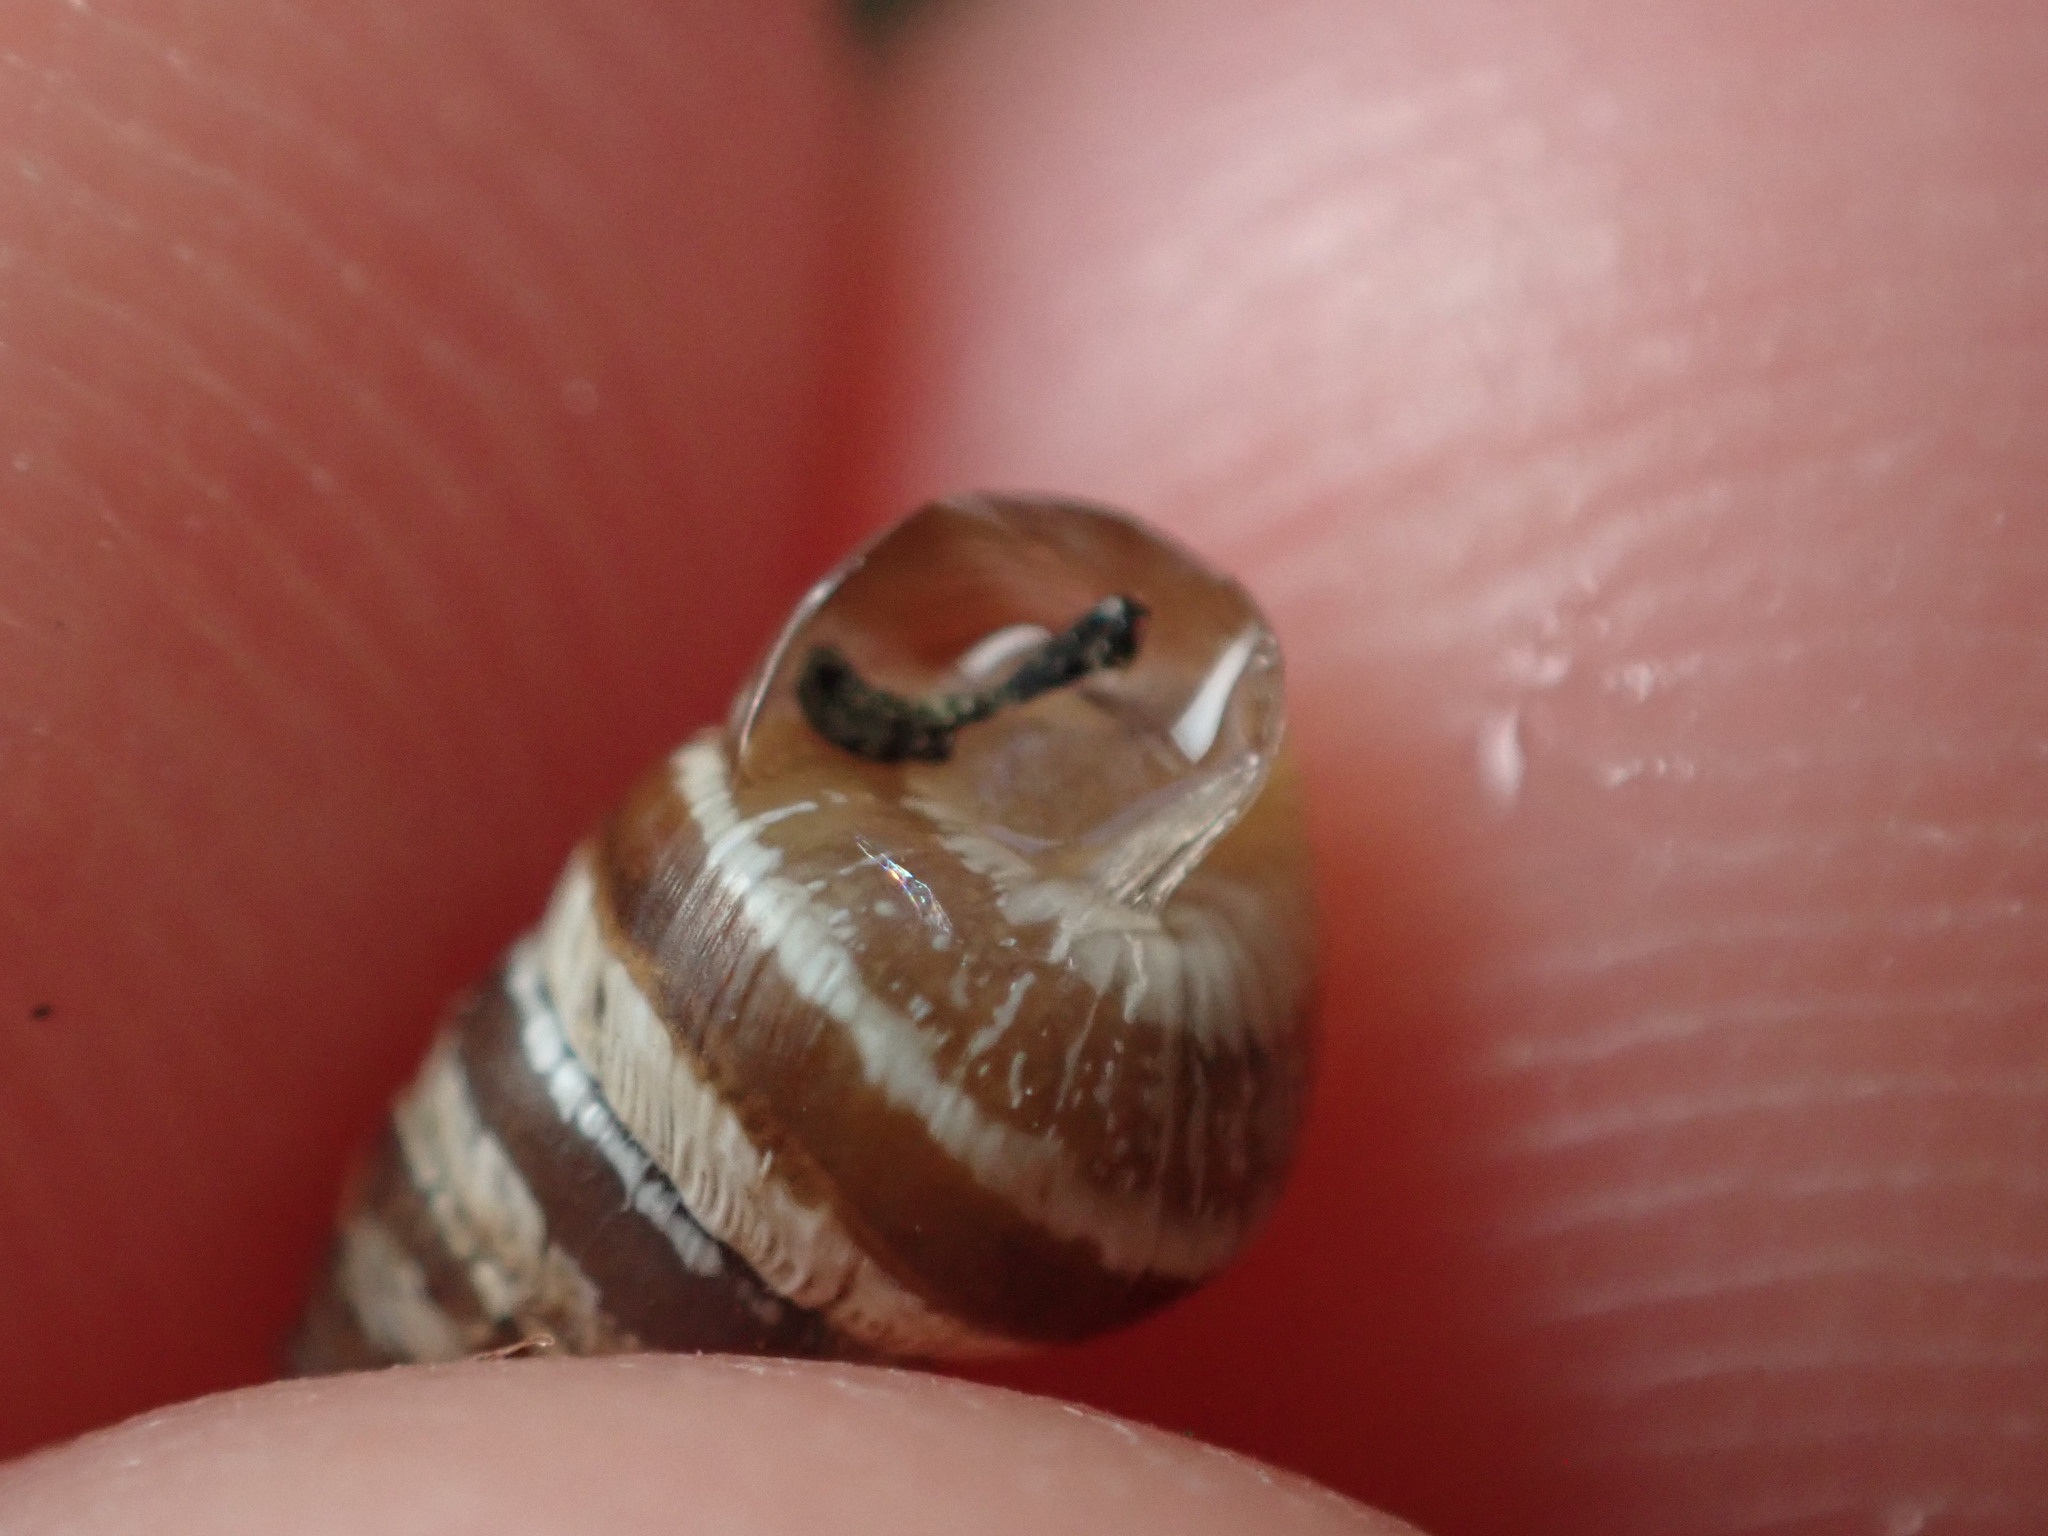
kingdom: Animalia
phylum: Mollusca
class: Gastropoda
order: Stylommatophora
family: Geomitridae
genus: Cochlicella
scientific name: Cochlicella barbara
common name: Potbellied helicellid
